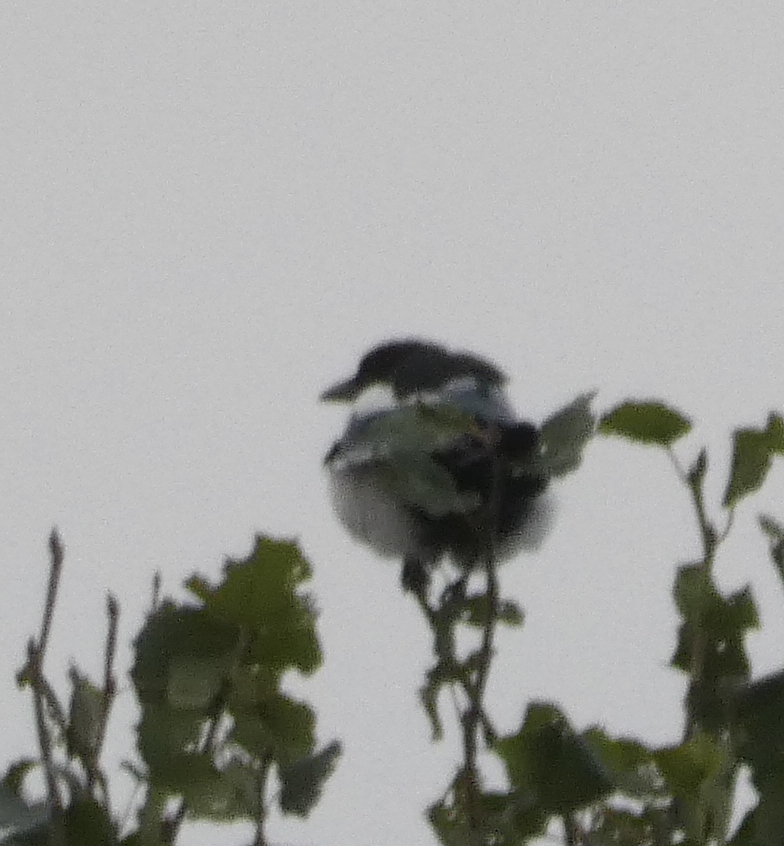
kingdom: Animalia
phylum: Chordata
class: Aves
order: Passeriformes
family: Corvidae
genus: Pica
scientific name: Pica hudsonia
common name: Black-billed magpie
